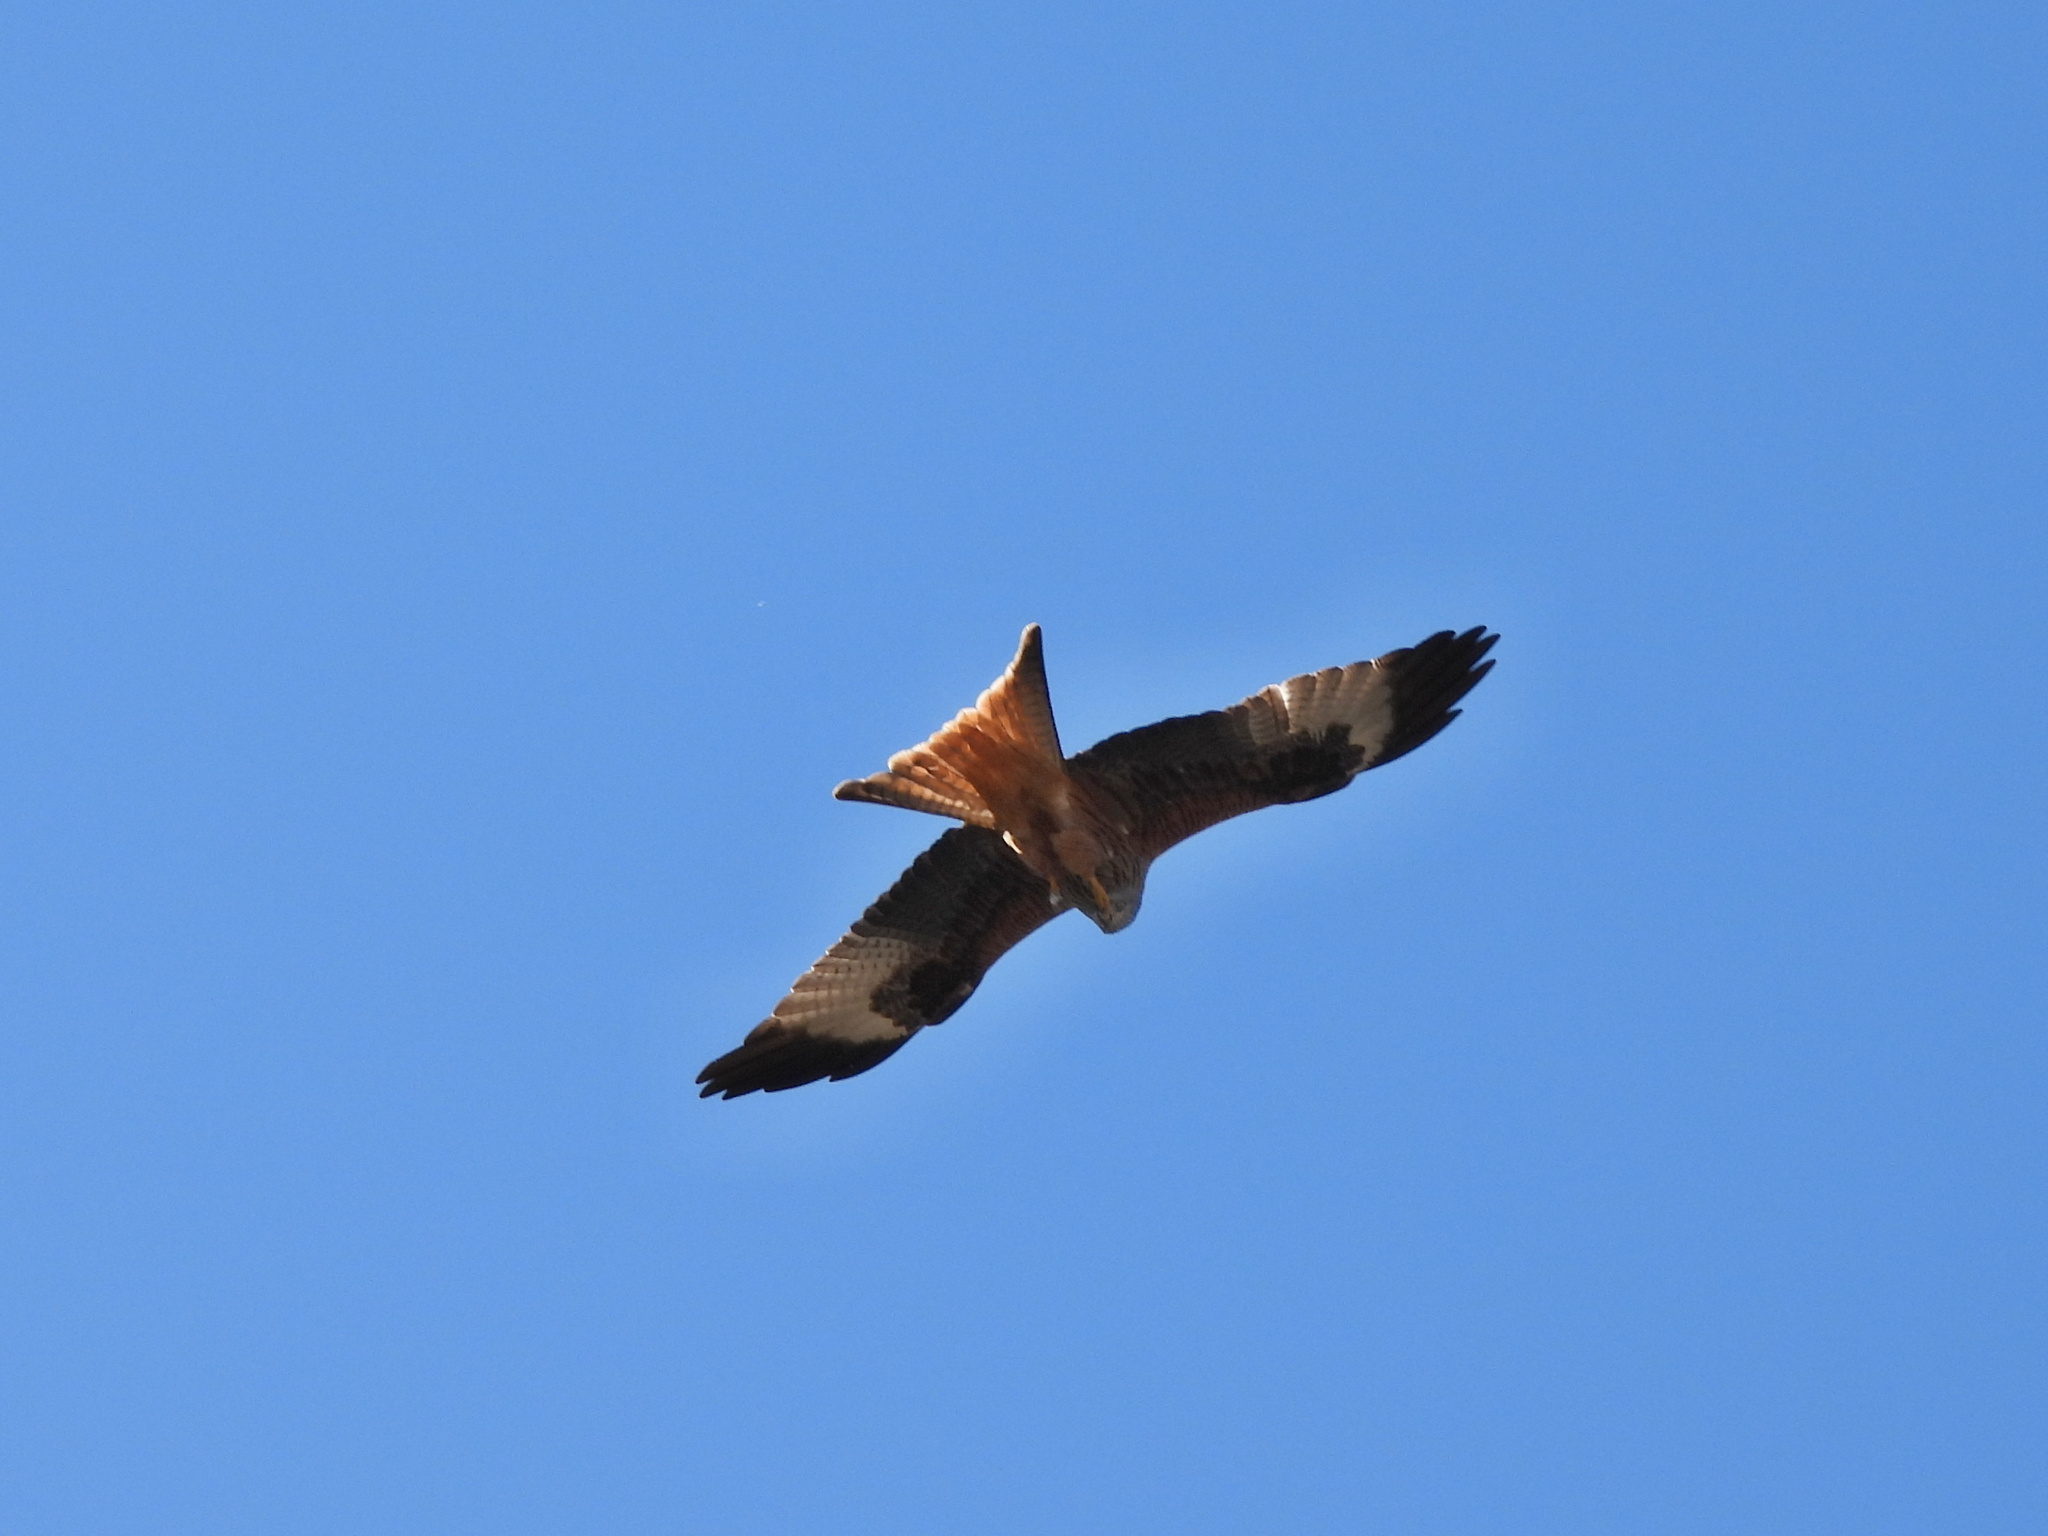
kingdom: Animalia
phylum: Chordata
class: Aves
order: Accipitriformes
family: Accipitridae
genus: Milvus
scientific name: Milvus milvus
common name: Red kite
